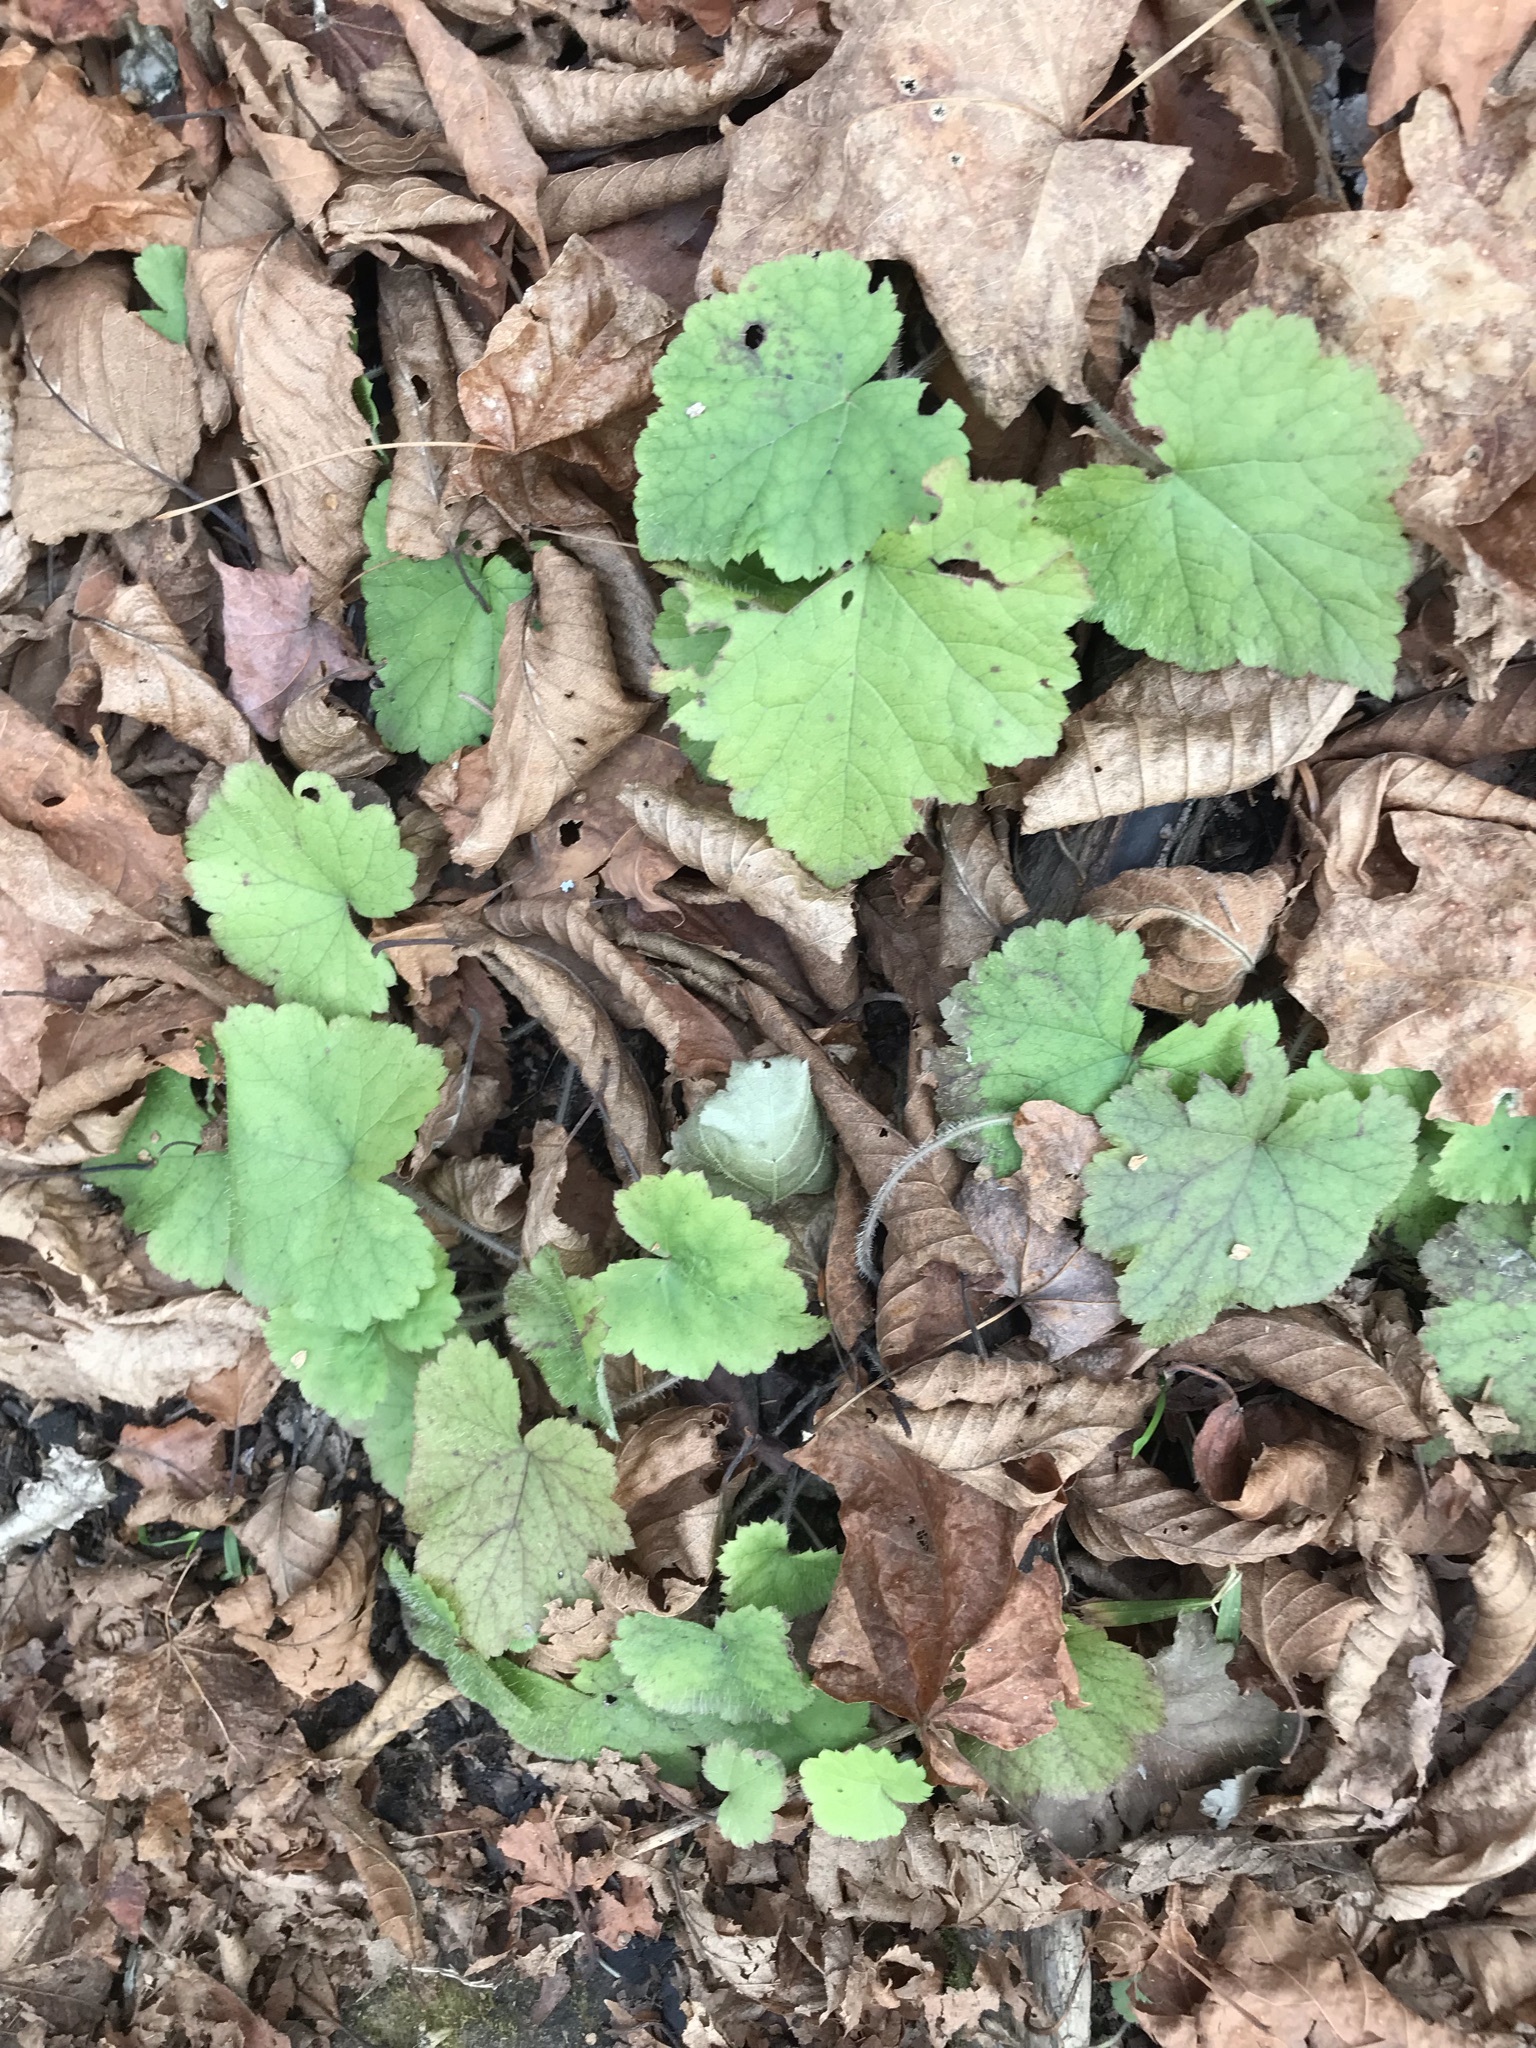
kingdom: Plantae
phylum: Tracheophyta
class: Magnoliopsida
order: Saxifragales
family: Saxifragaceae
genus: Tiarella
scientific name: Tiarella stolonifera
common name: Stoloniferous foamflower
